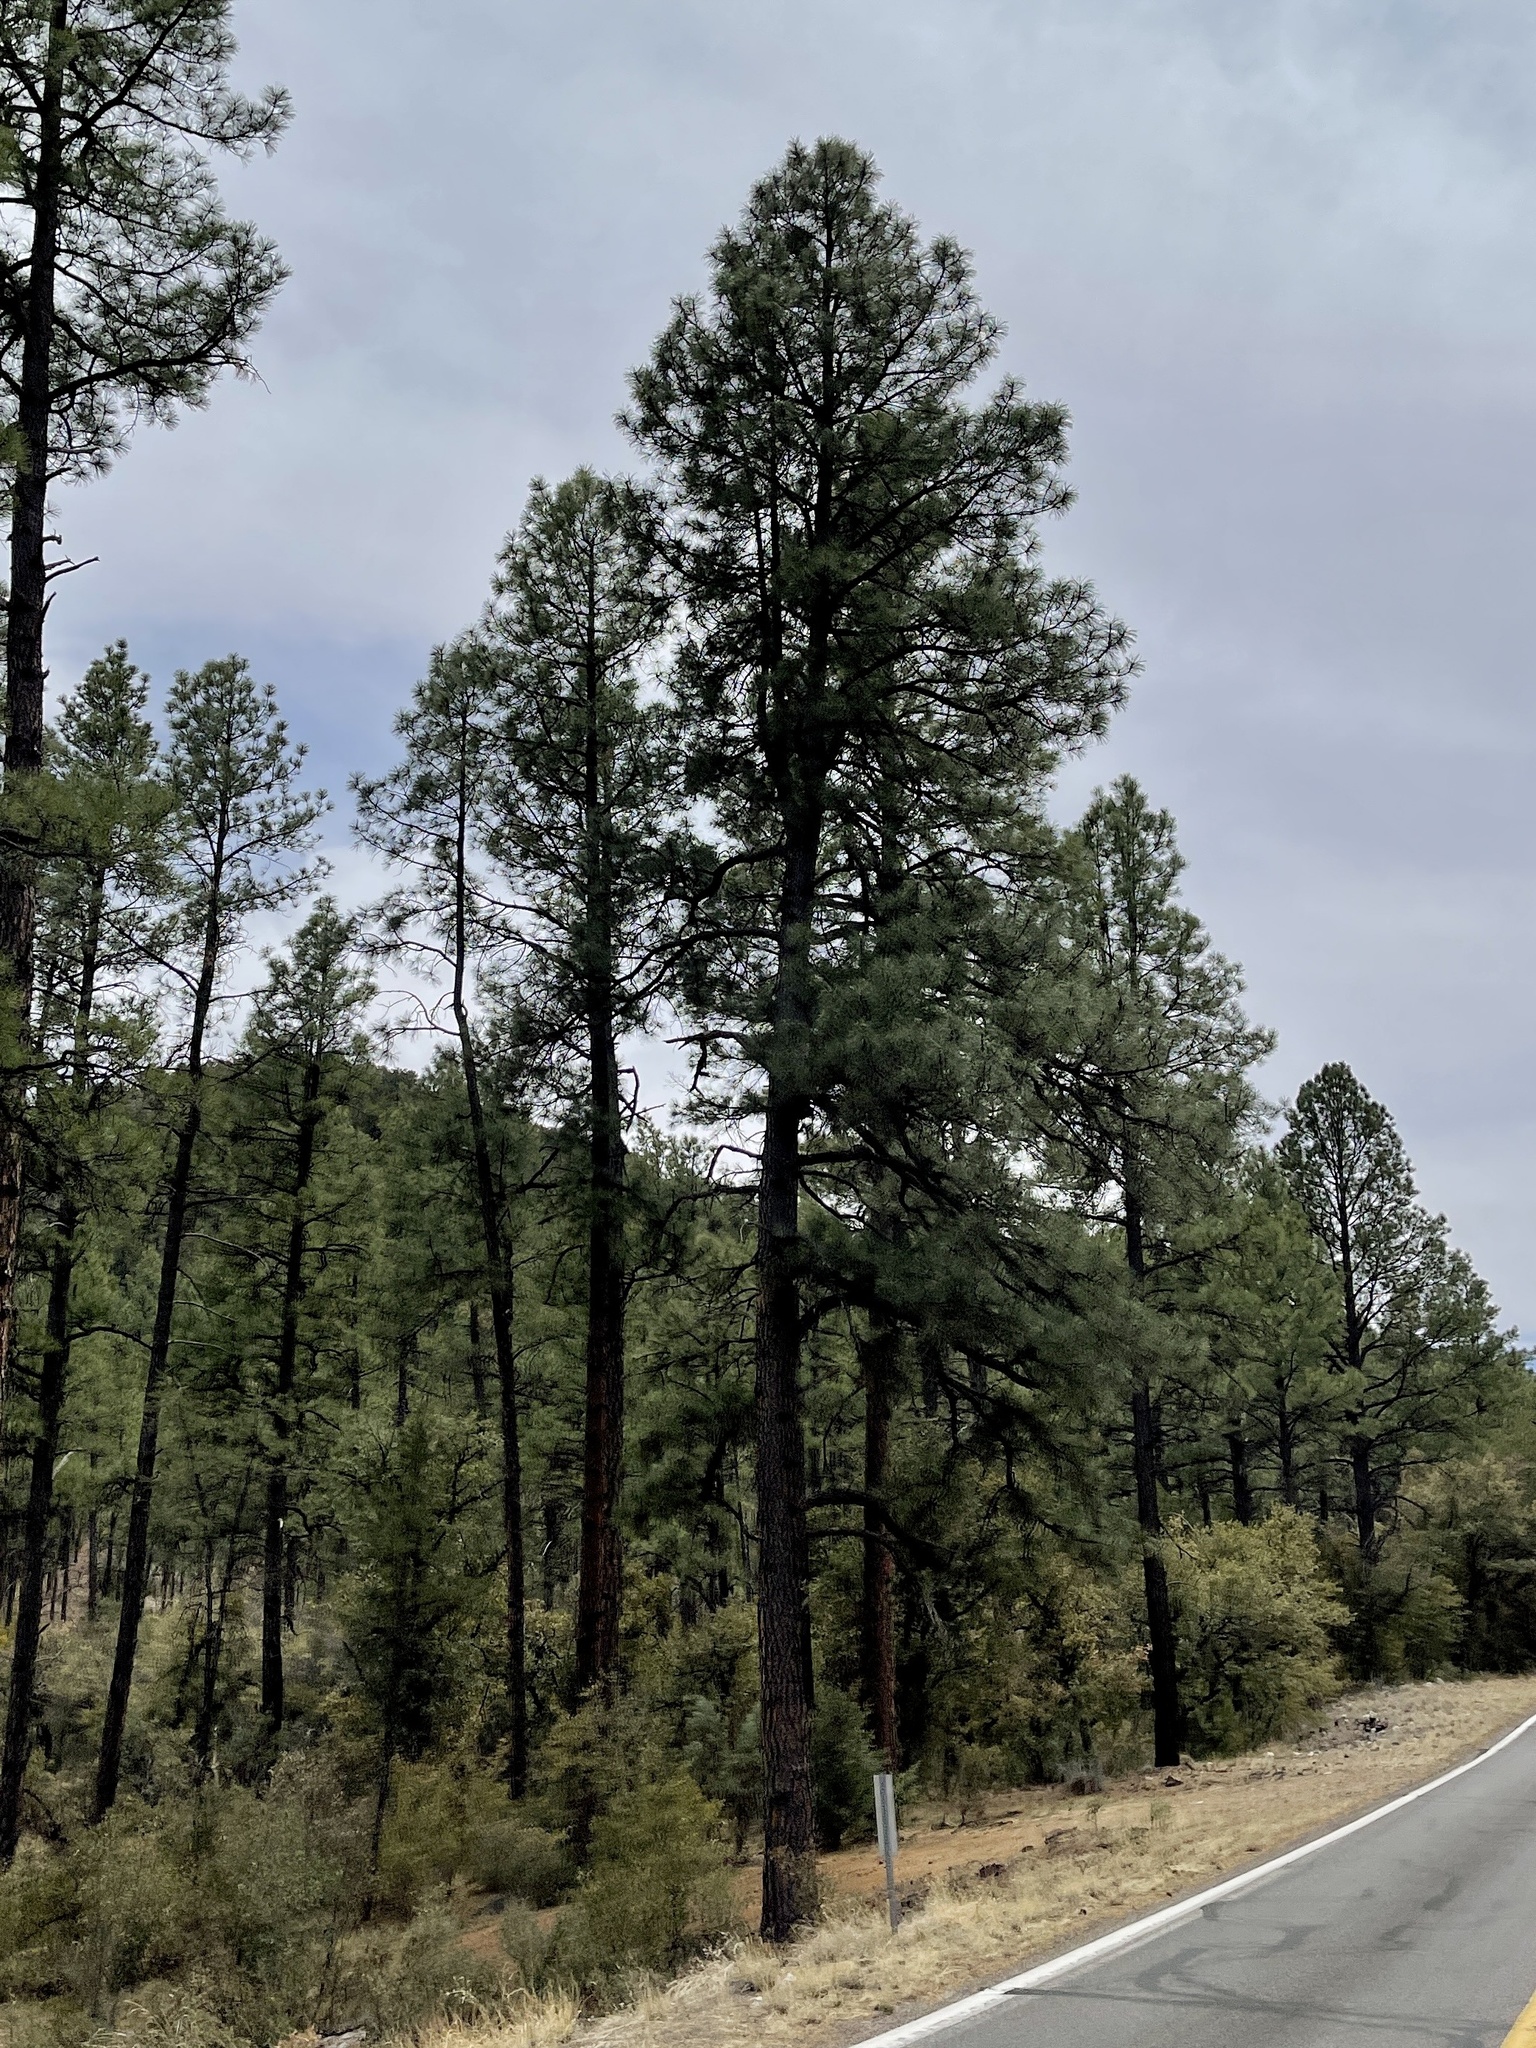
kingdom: Plantae
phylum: Tracheophyta
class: Pinopsida
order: Pinales
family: Pinaceae
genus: Pinus
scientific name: Pinus ponderosa
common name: Western yellow-pine
